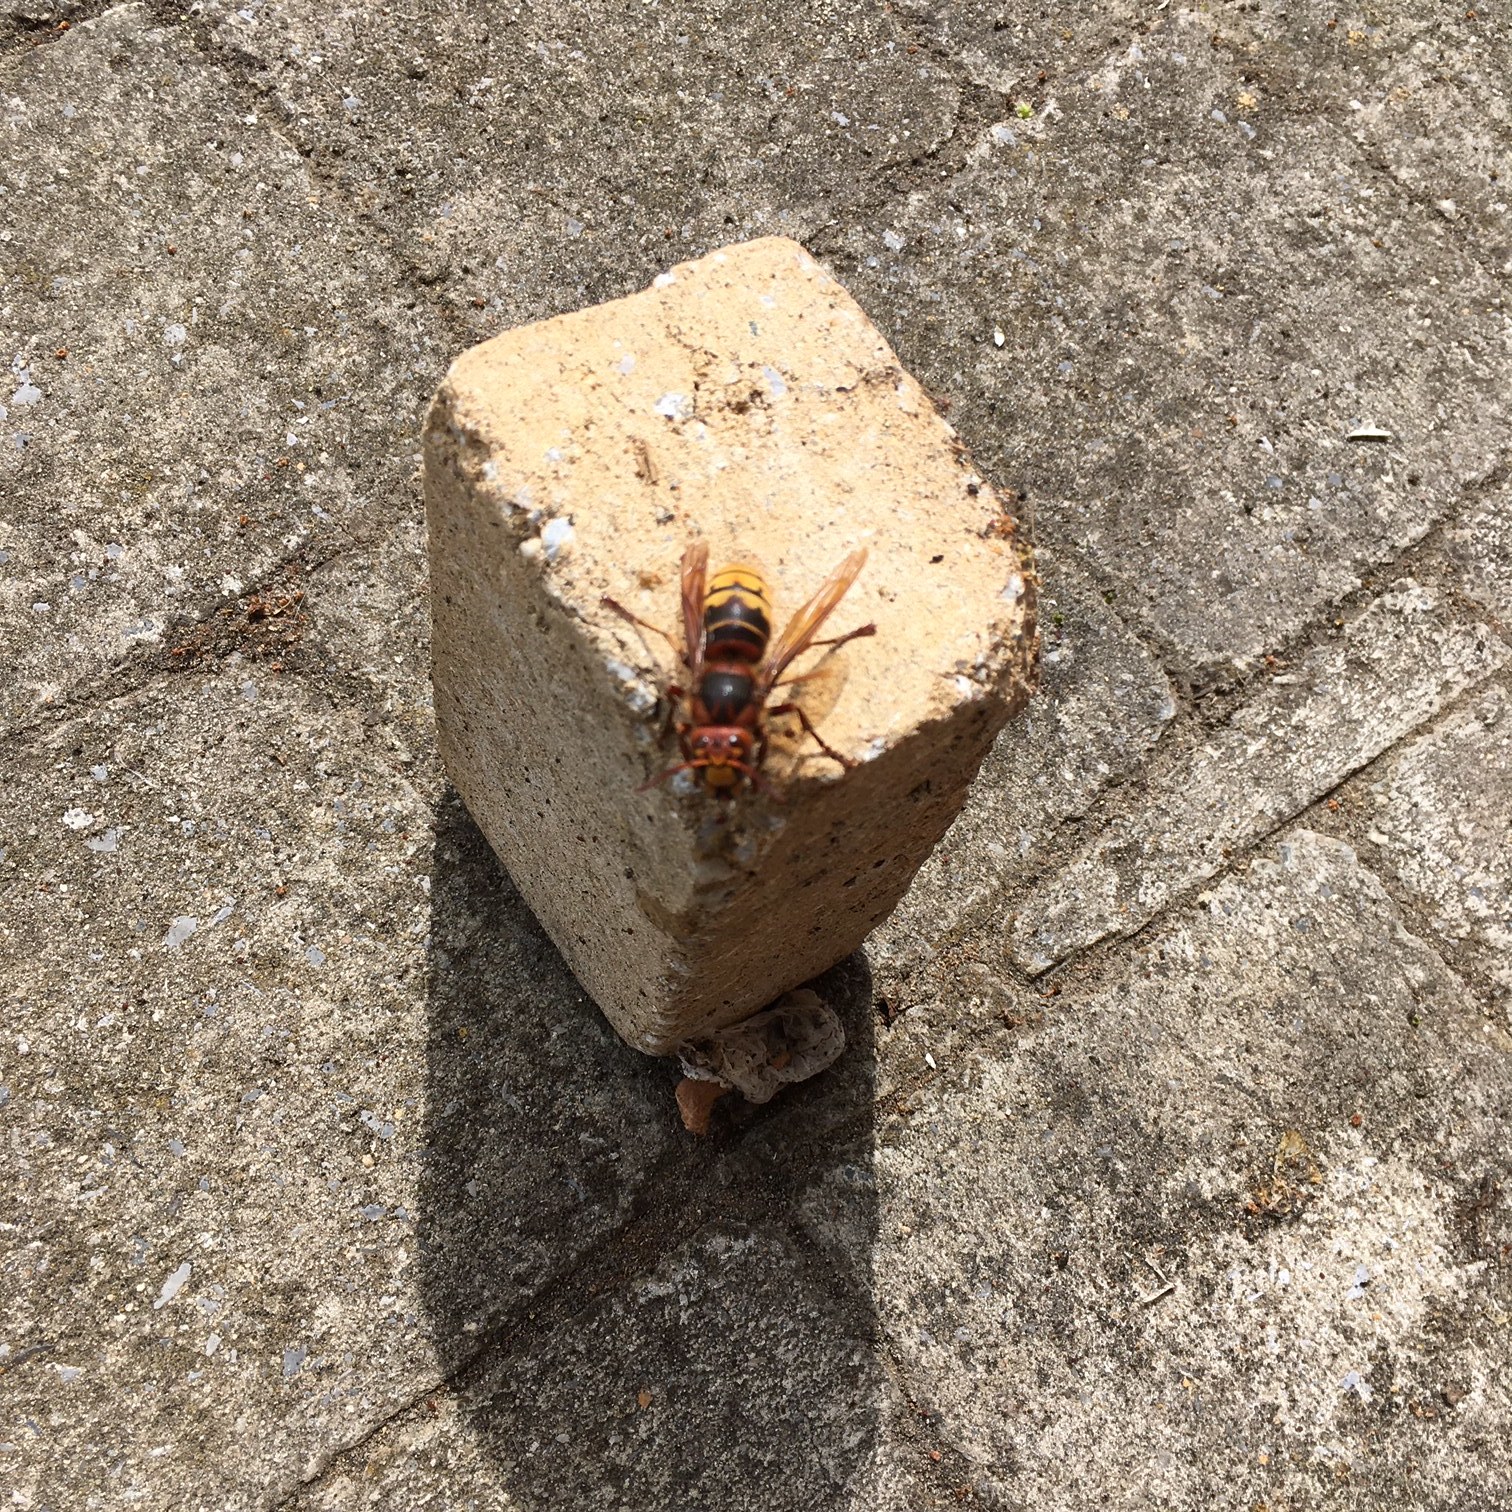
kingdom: Animalia
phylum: Arthropoda
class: Insecta
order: Hymenoptera
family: Vespidae
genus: Vespa
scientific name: Vespa crabro
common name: Hornet
